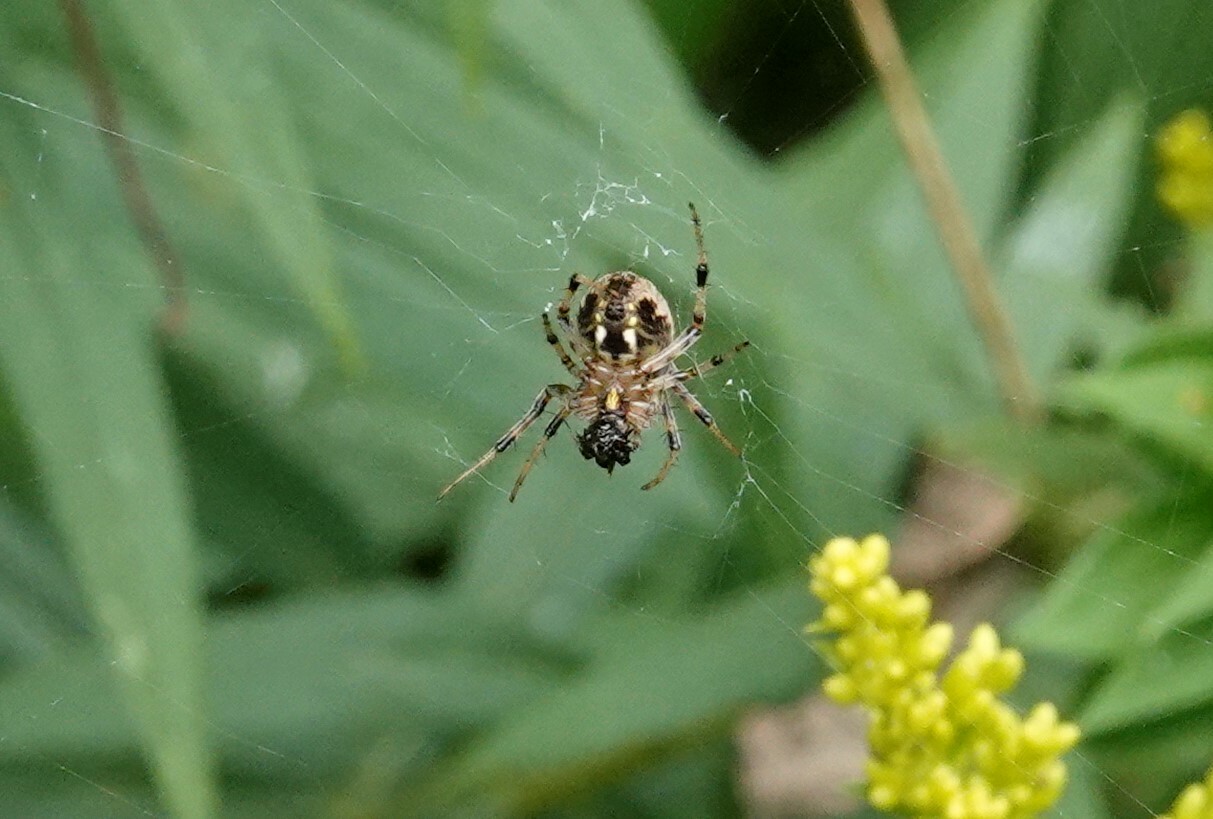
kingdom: Animalia
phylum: Arthropoda
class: Arachnida
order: Araneae
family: Araneidae
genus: Neoscona
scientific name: Neoscona arabesca
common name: Orb weavers
